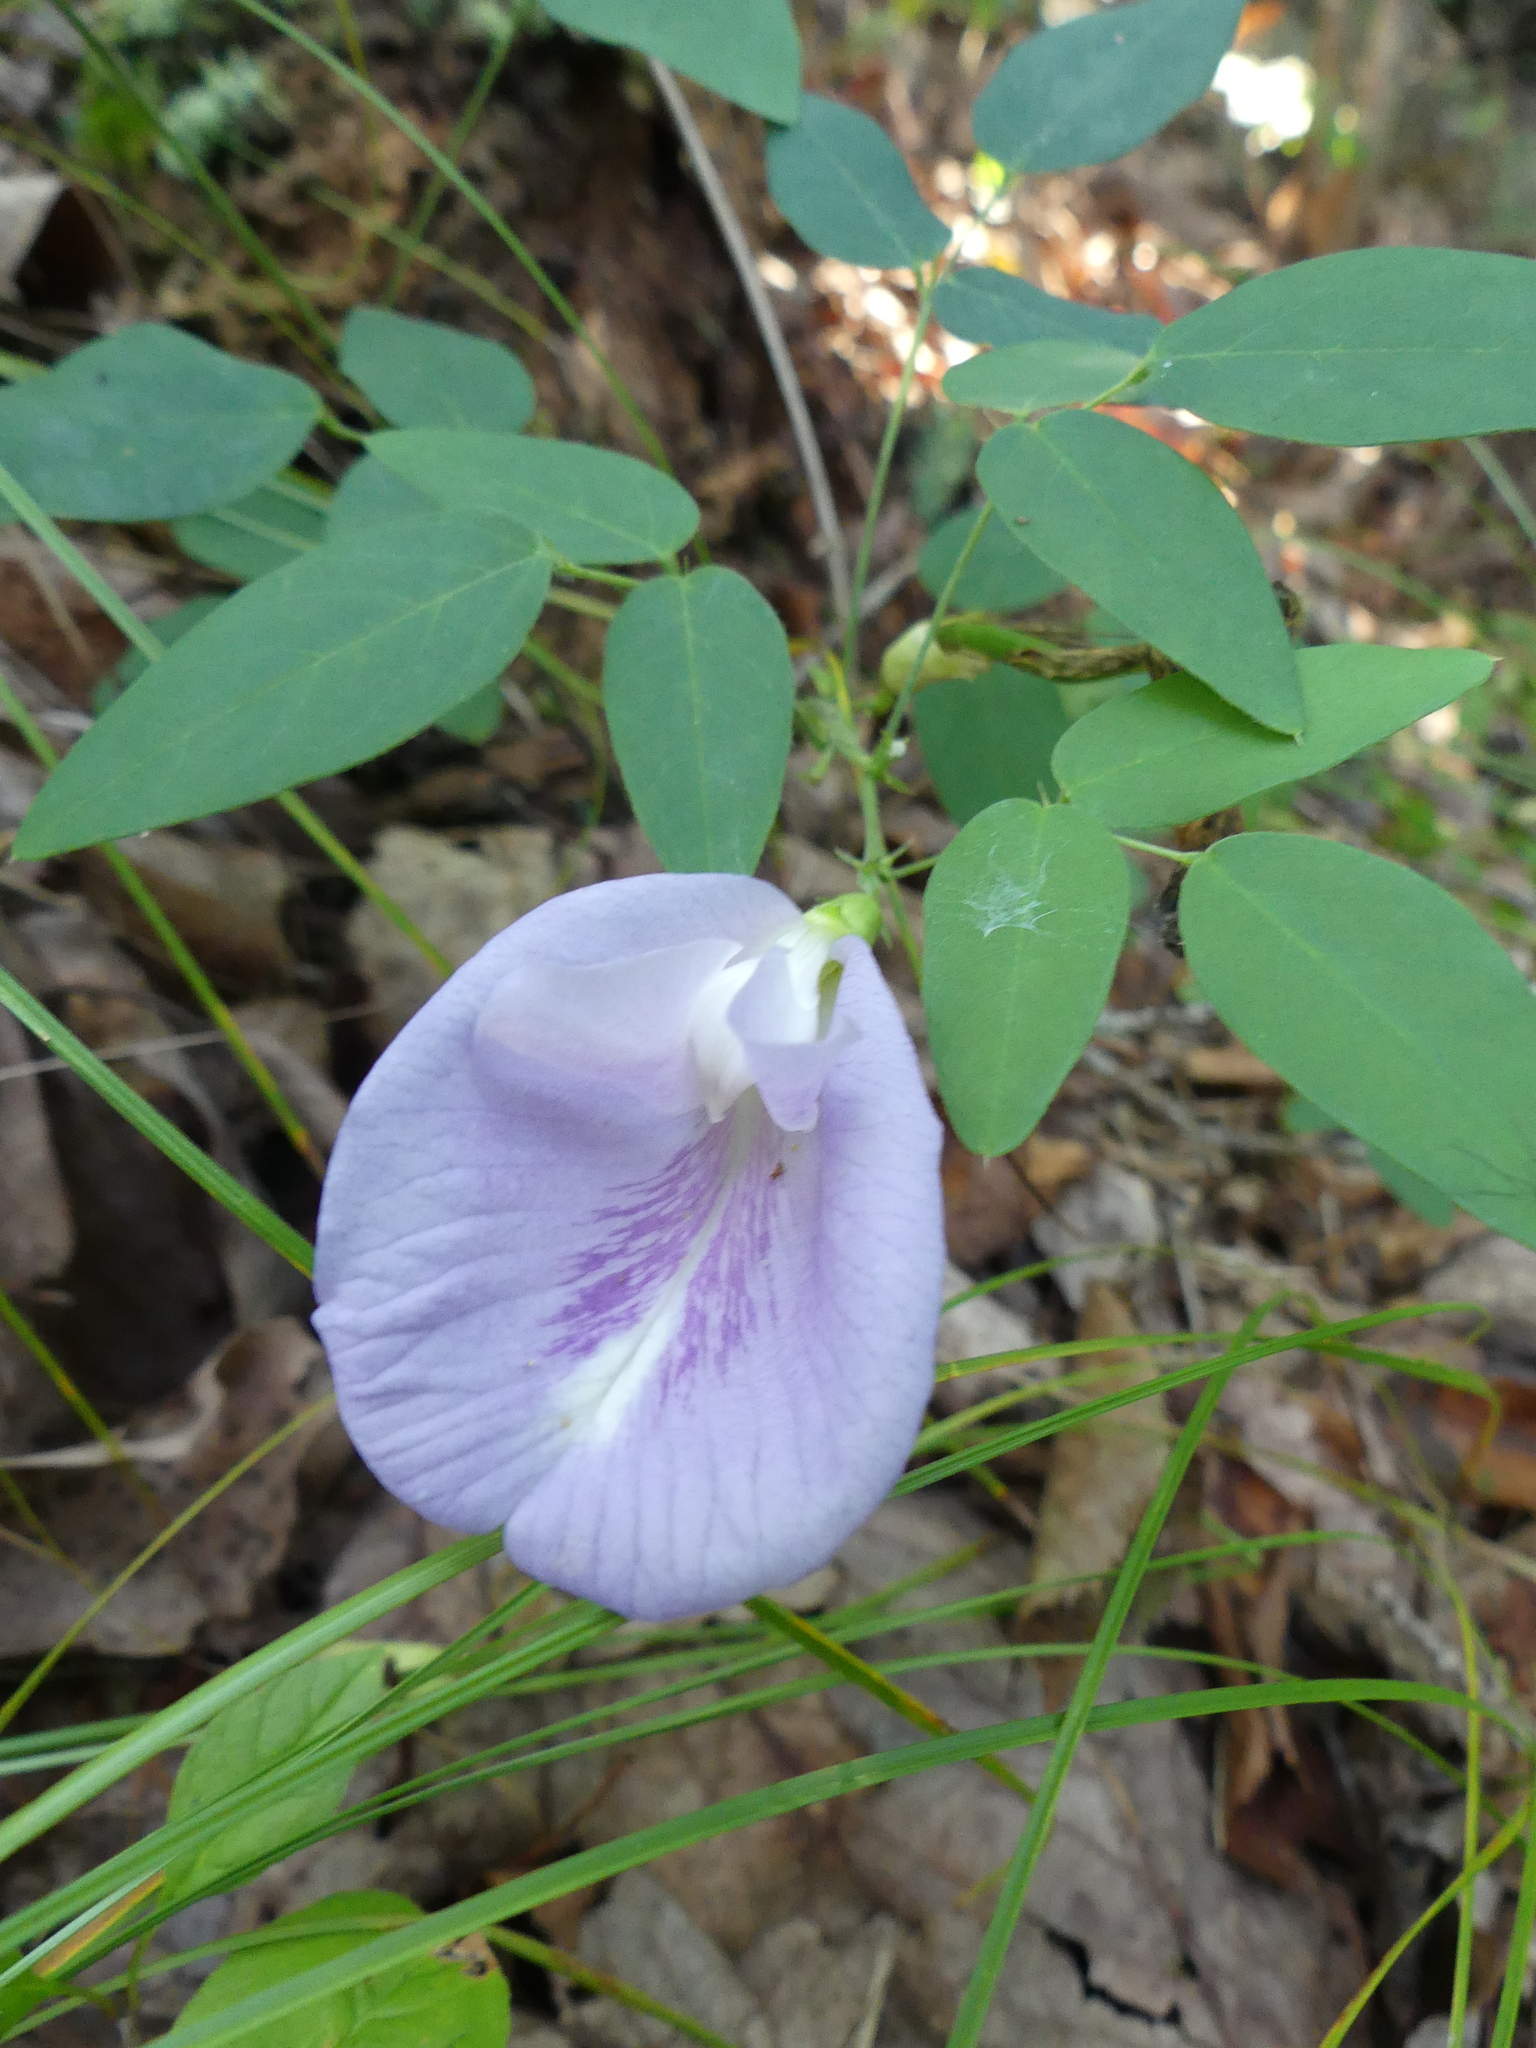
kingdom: Plantae
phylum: Tracheophyta
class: Magnoliopsida
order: Fabales
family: Fabaceae
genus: Clitoria
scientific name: Clitoria mariana
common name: Butterfly-pea
